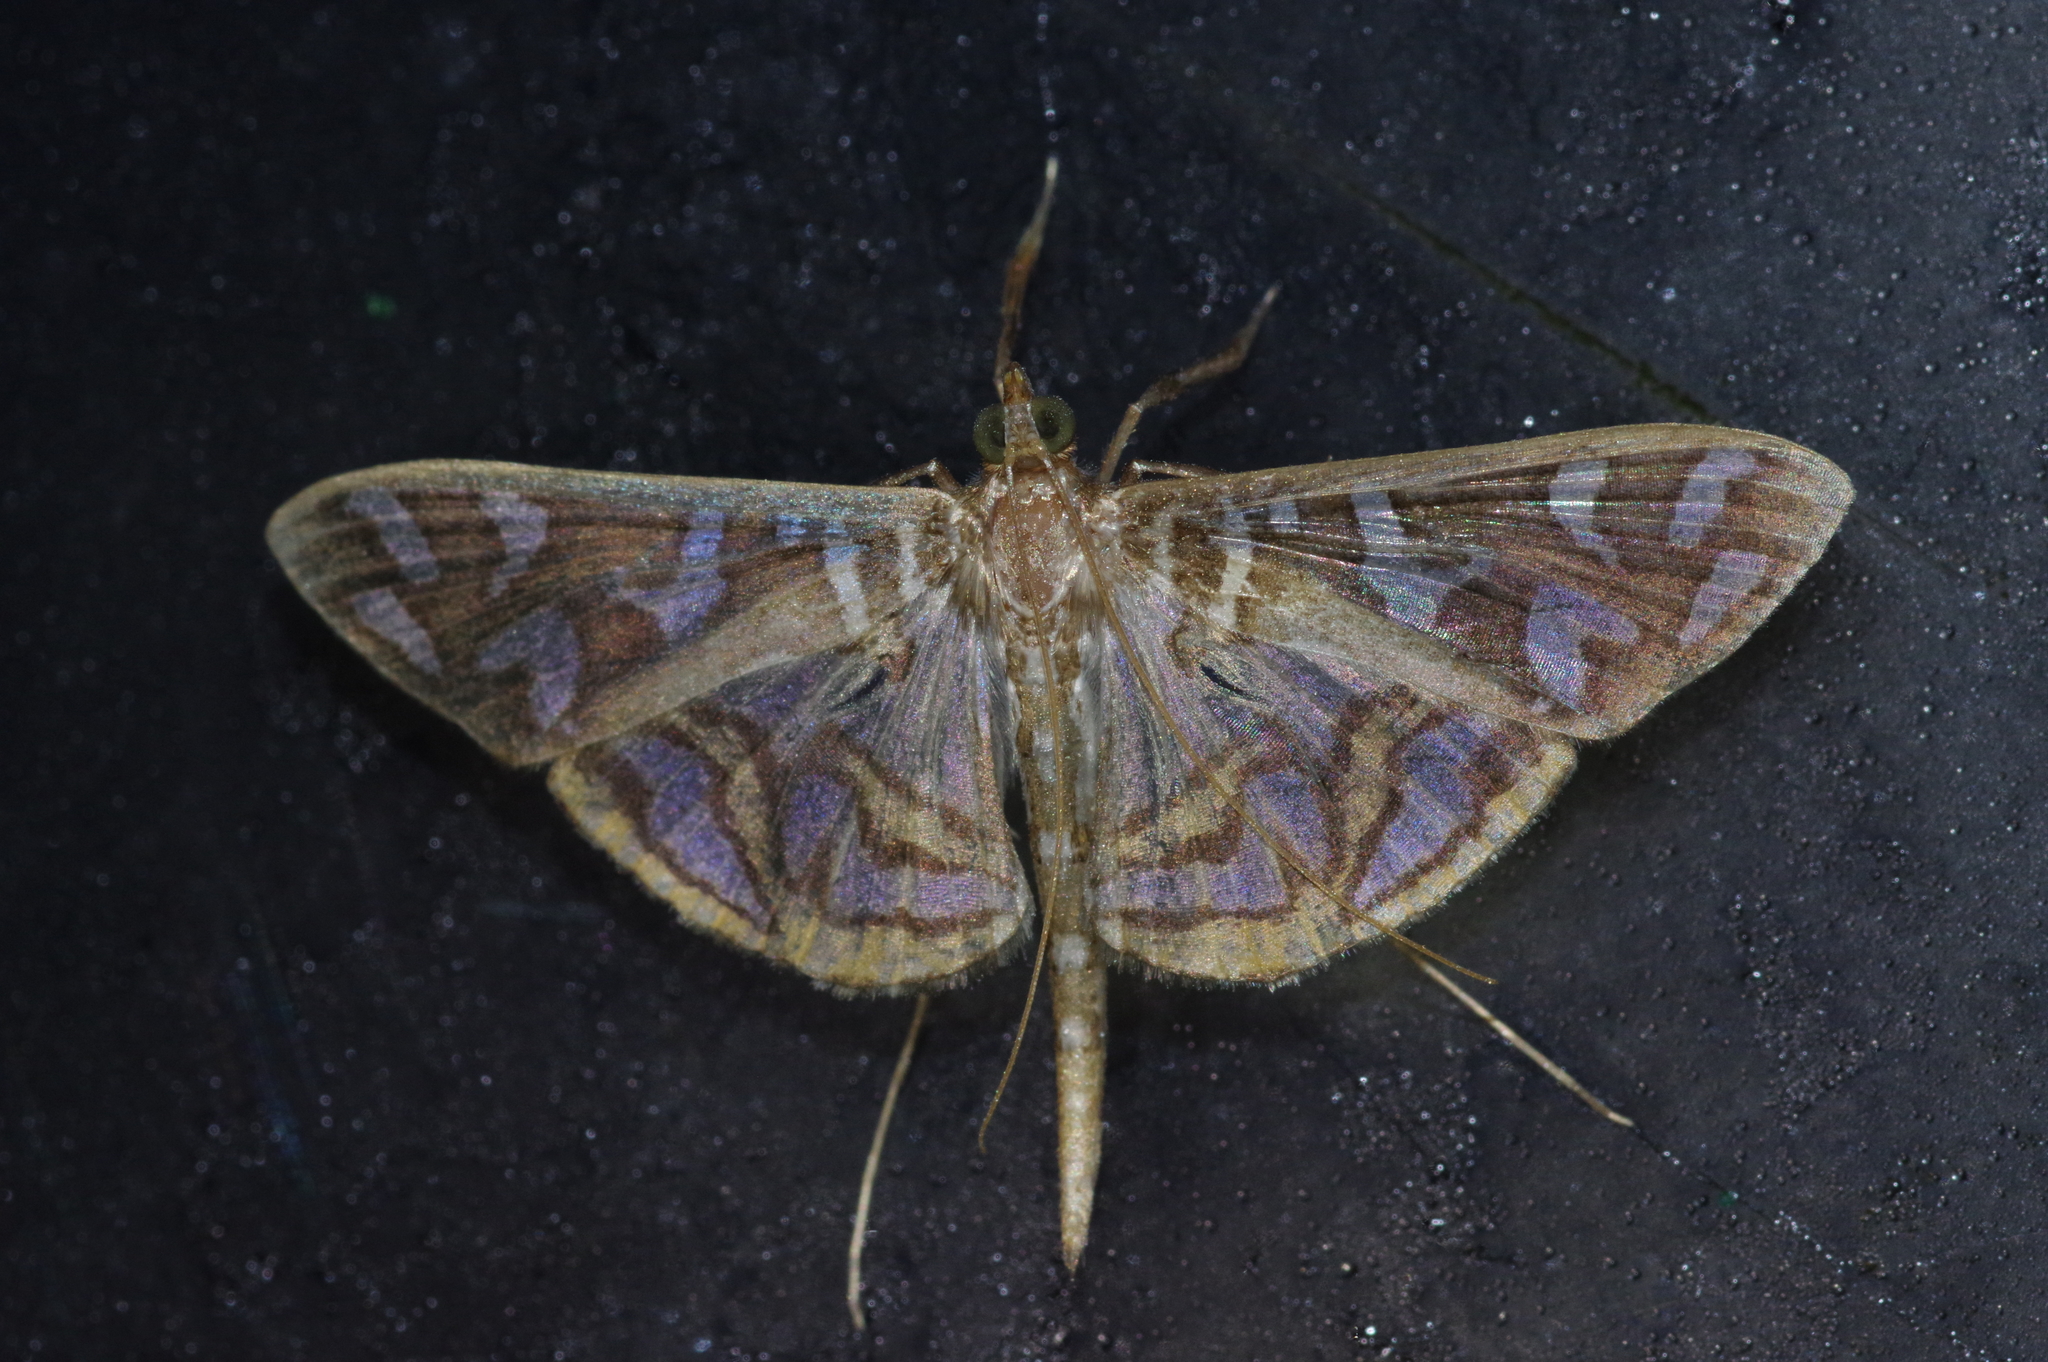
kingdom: Animalia
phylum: Arthropoda
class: Insecta
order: Lepidoptera
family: Crambidae
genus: Nausinoe
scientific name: Nausinoe perspectata
